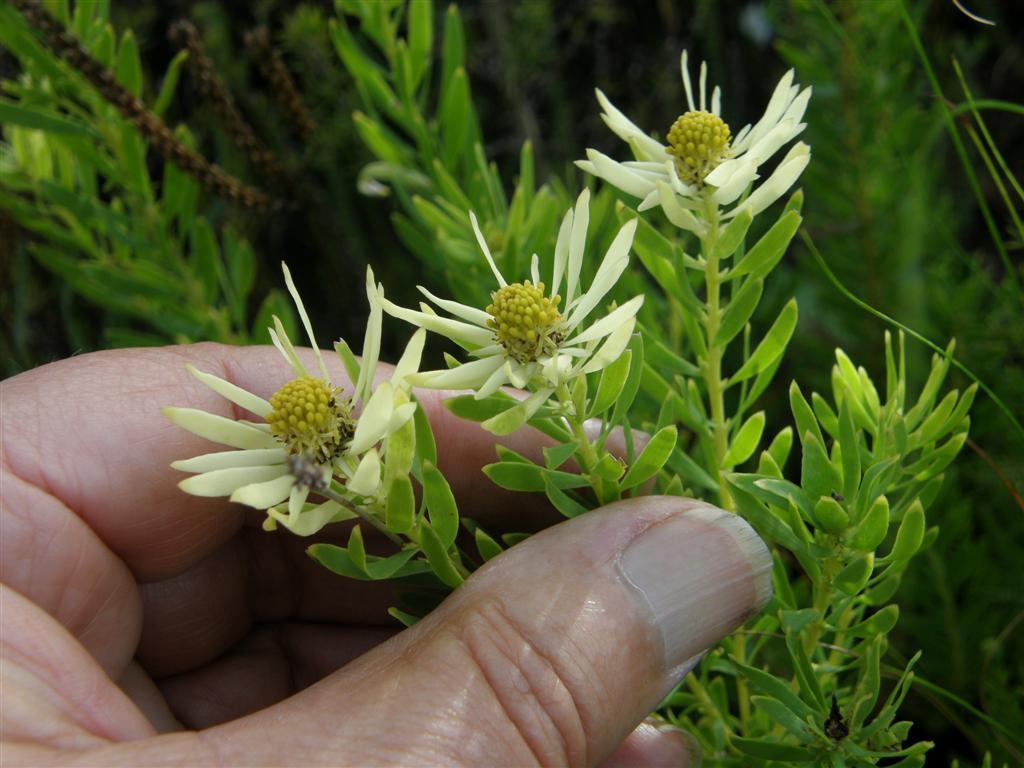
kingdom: Plantae
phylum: Tracheophyta
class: Magnoliopsida
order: Proteales
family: Proteaceae
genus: Leucadendron
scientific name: Leucadendron salignum
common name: Common sunshine conebush
